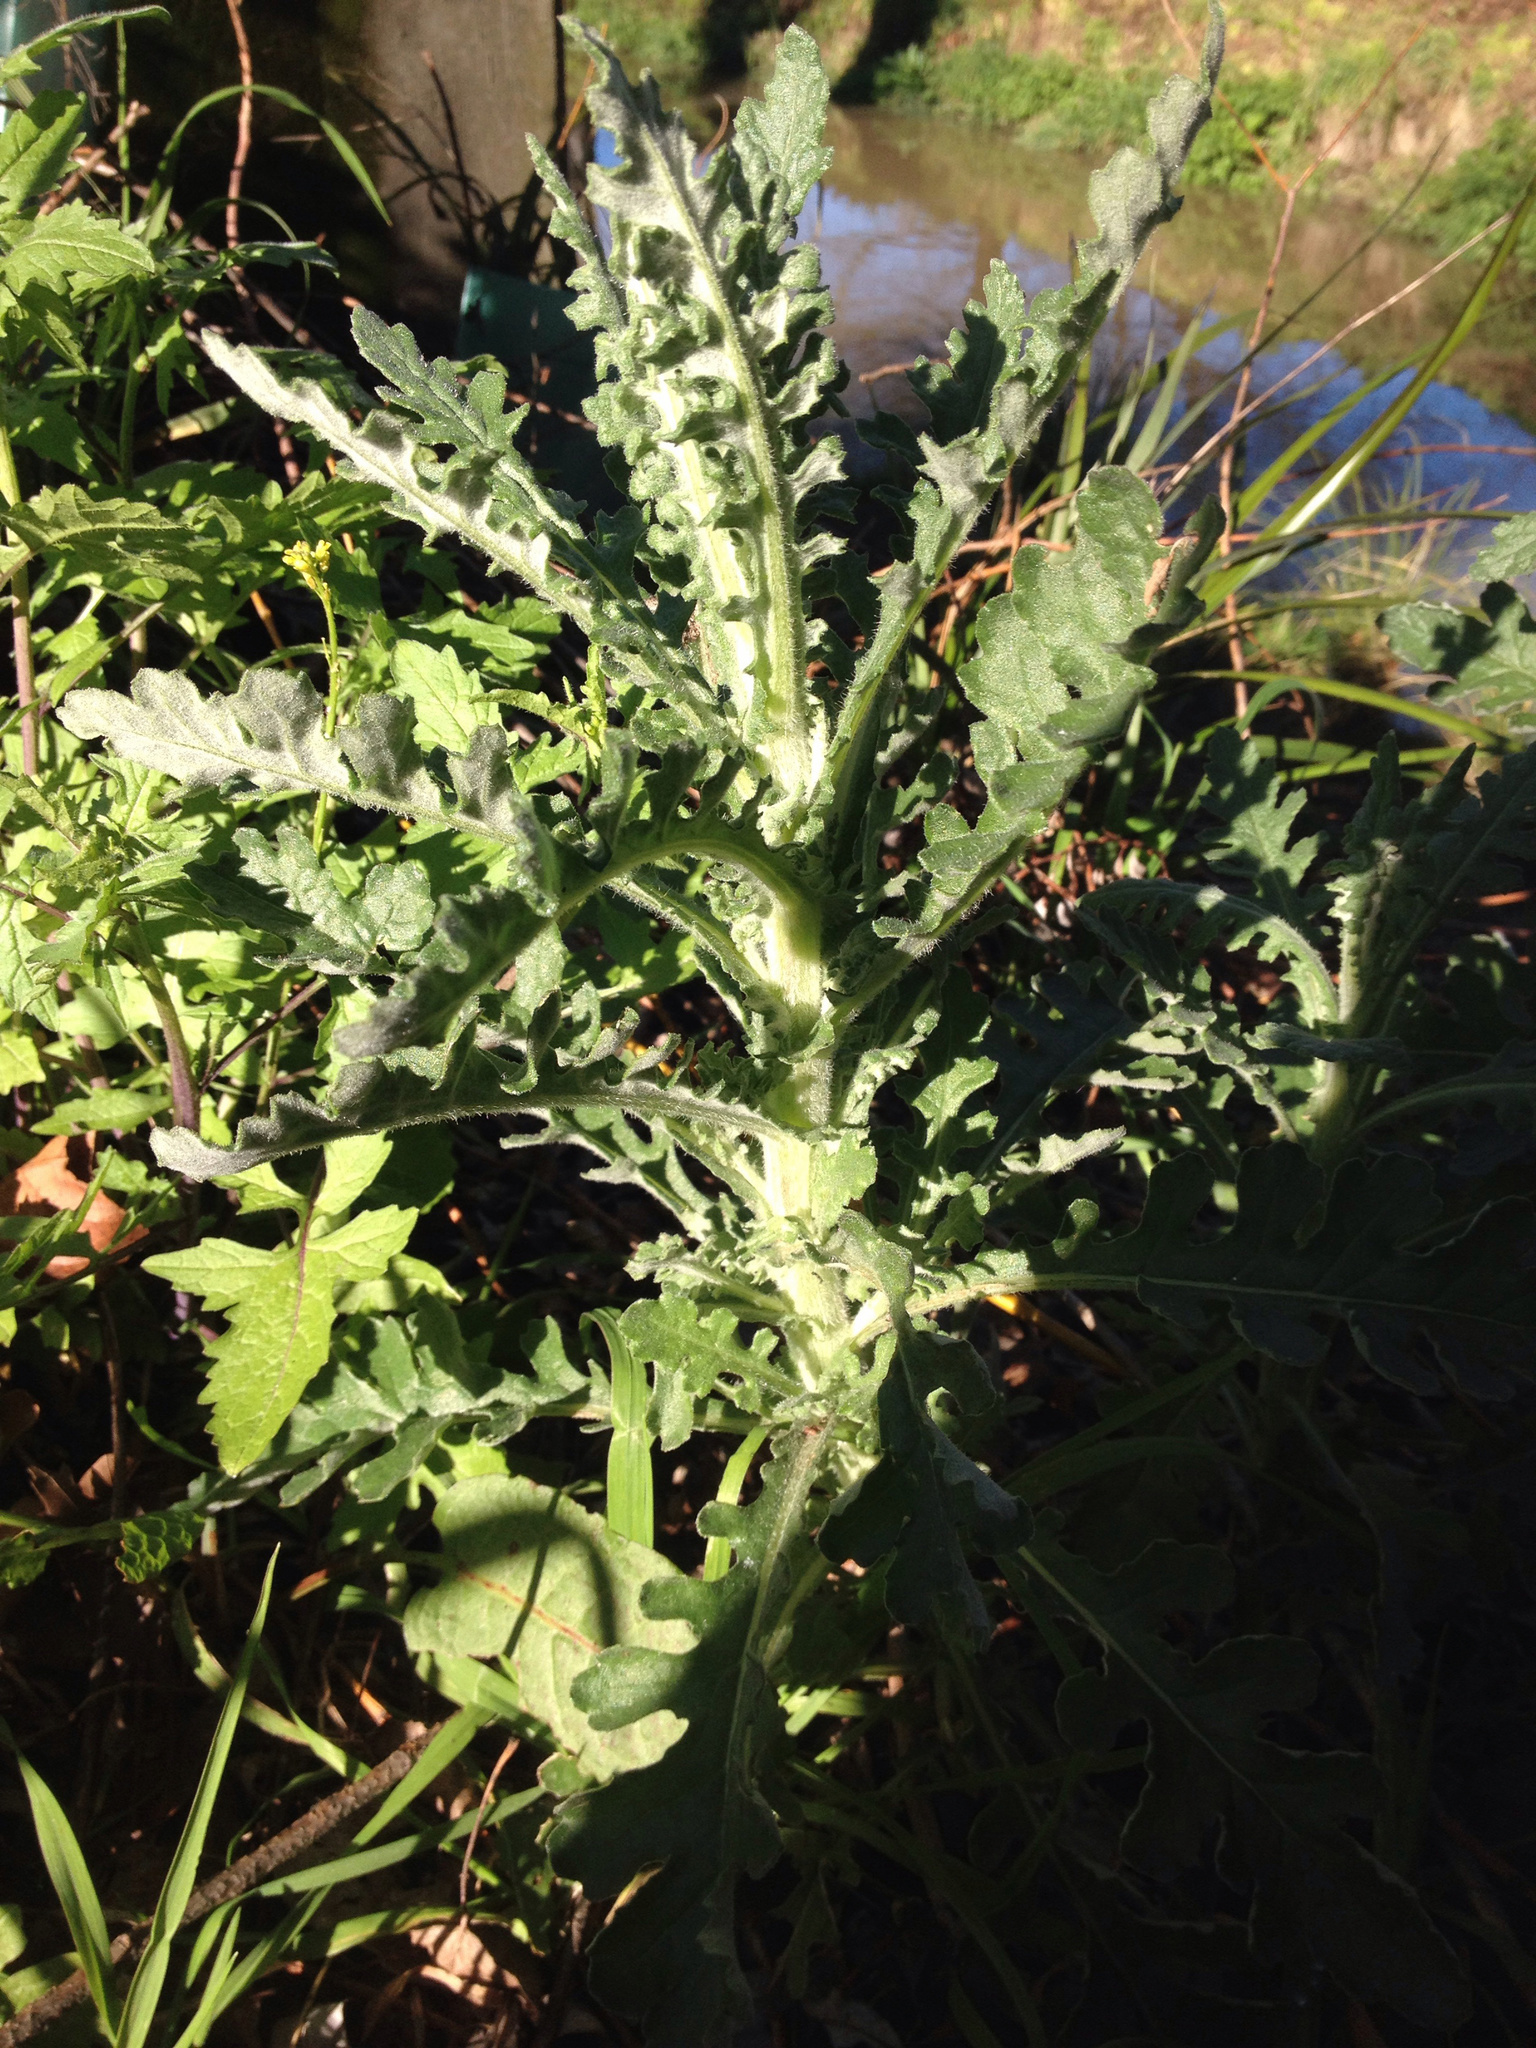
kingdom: Plantae
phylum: Tracheophyta
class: Magnoliopsida
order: Asterales
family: Asteraceae
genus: Senecio
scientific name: Senecio glomeratus
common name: Cutleaf burnweed
